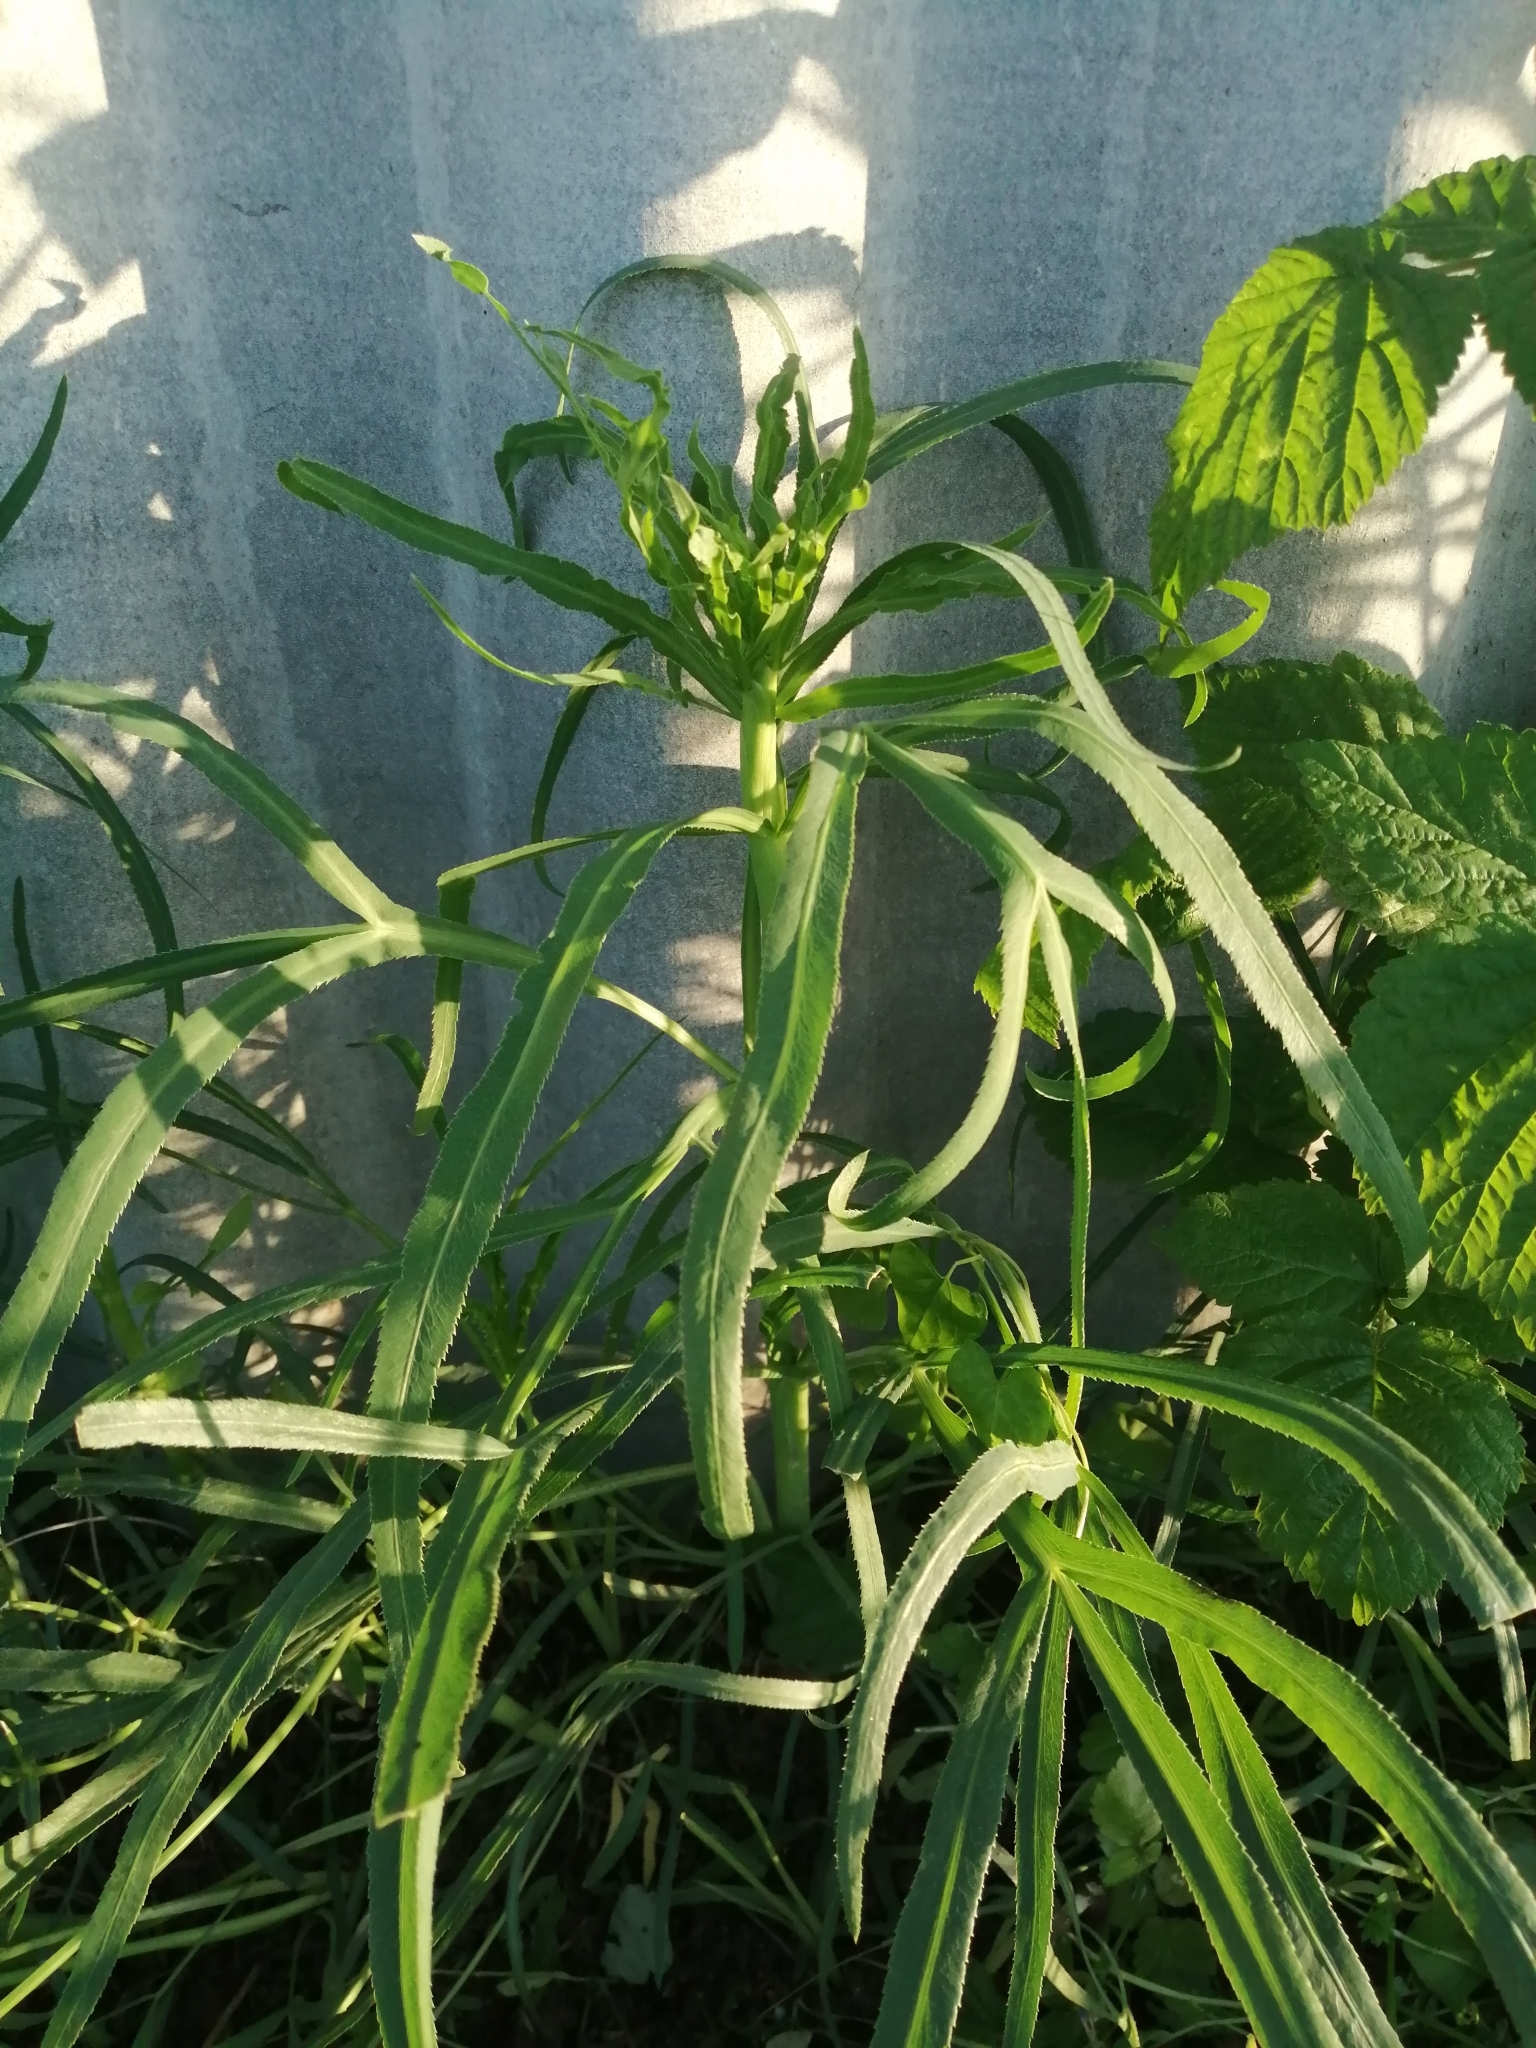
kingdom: Plantae
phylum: Tracheophyta
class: Magnoliopsida
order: Apiales
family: Apiaceae
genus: Falcaria
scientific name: Falcaria vulgaris
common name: Longleaf
